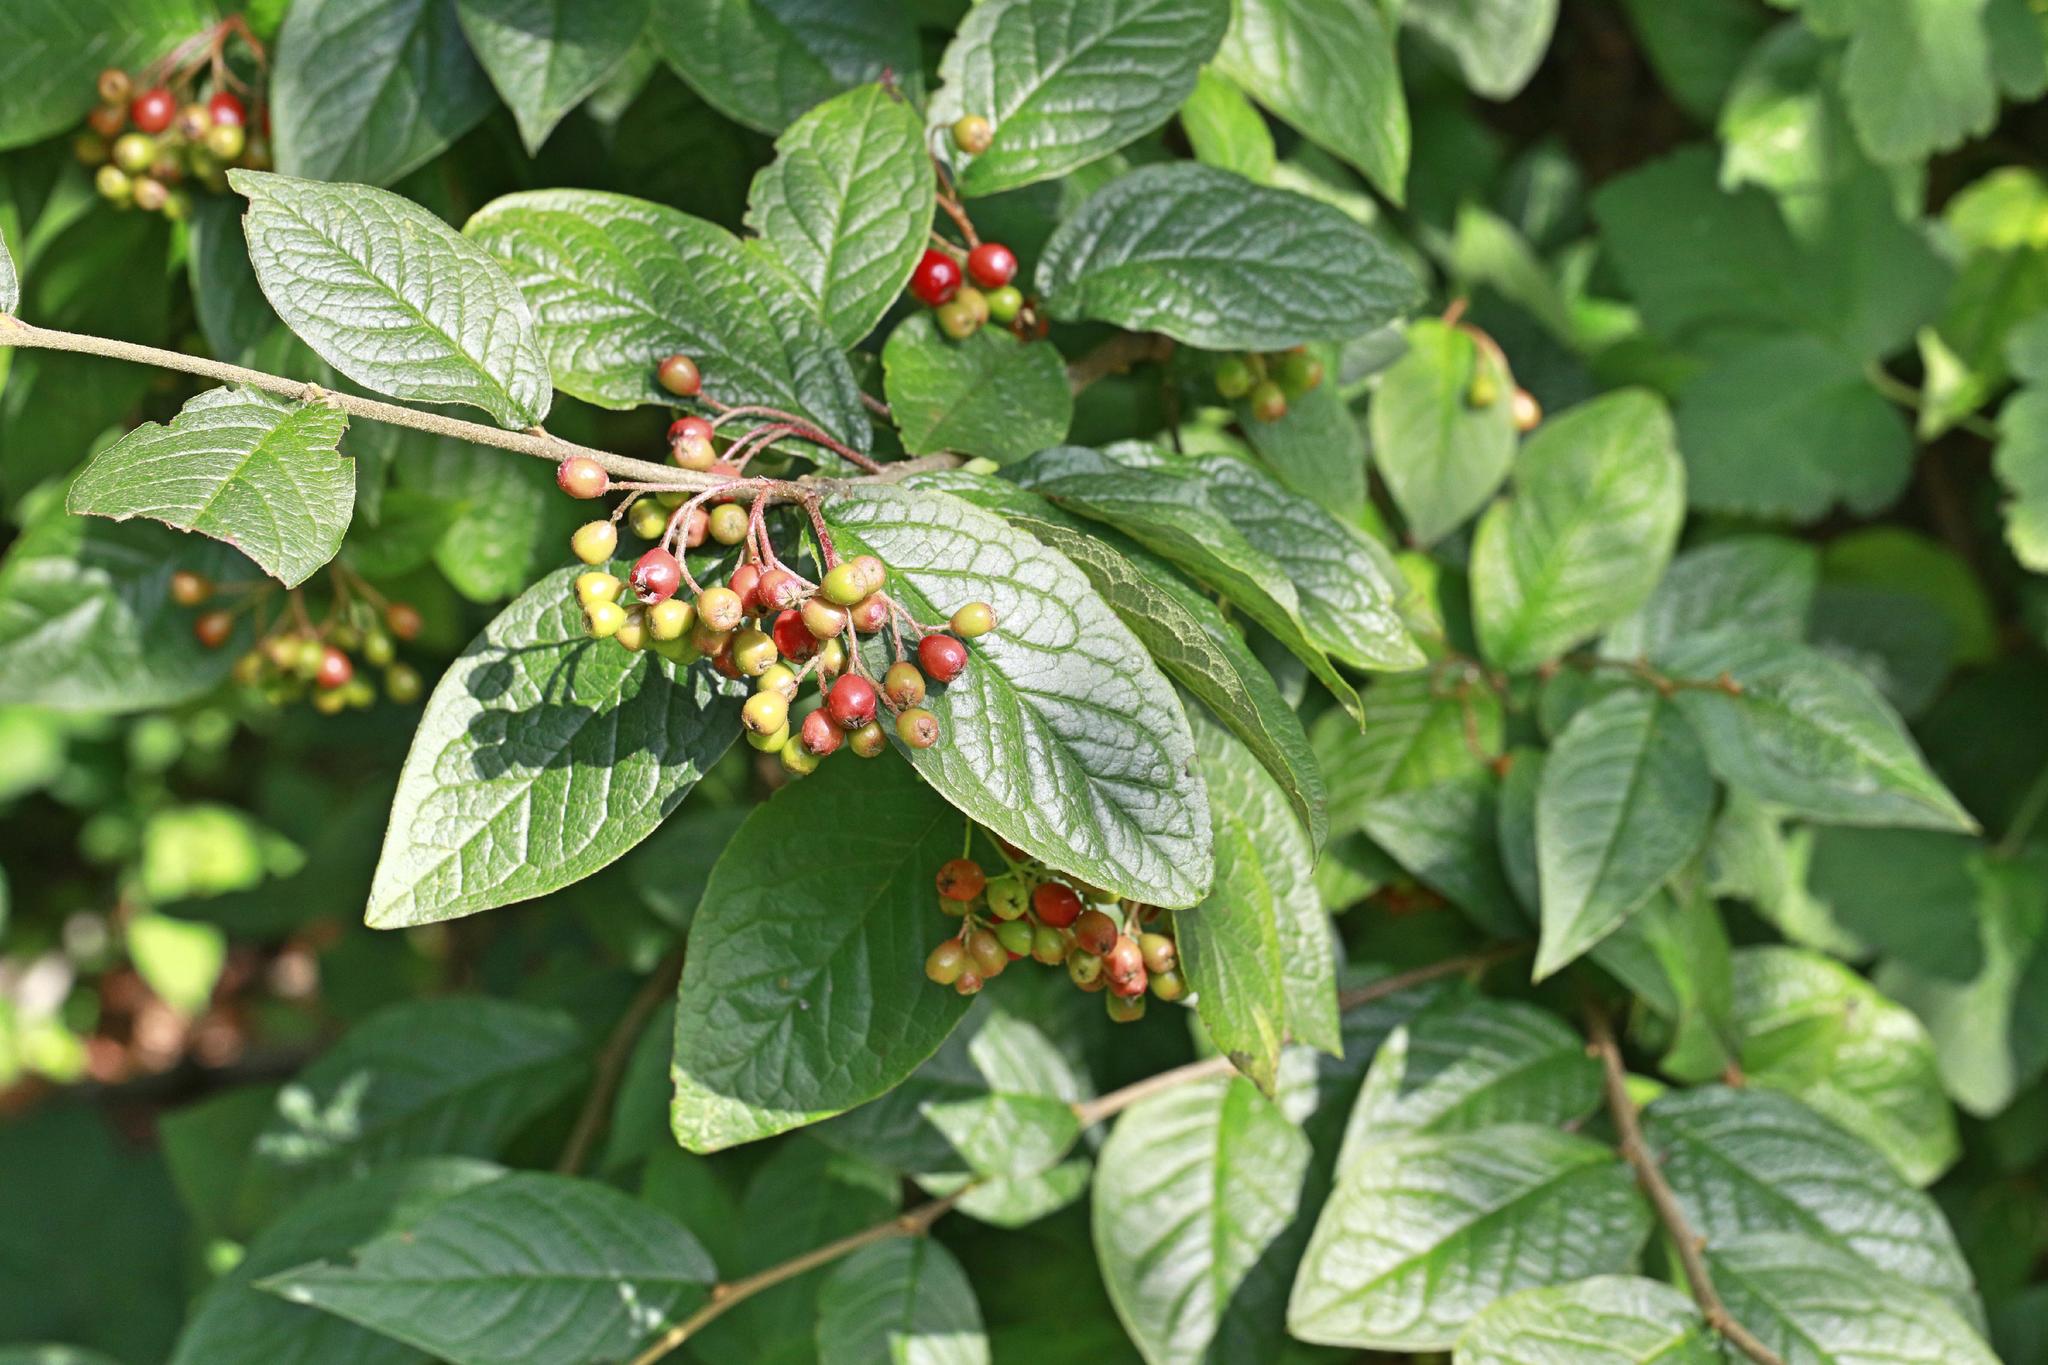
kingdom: Plantae
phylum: Tracheophyta
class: Magnoliopsida
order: Rosales
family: Rosaceae
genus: Cotoneaster
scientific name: Cotoneaster bullatus
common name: Hollyberry cotoneaster
